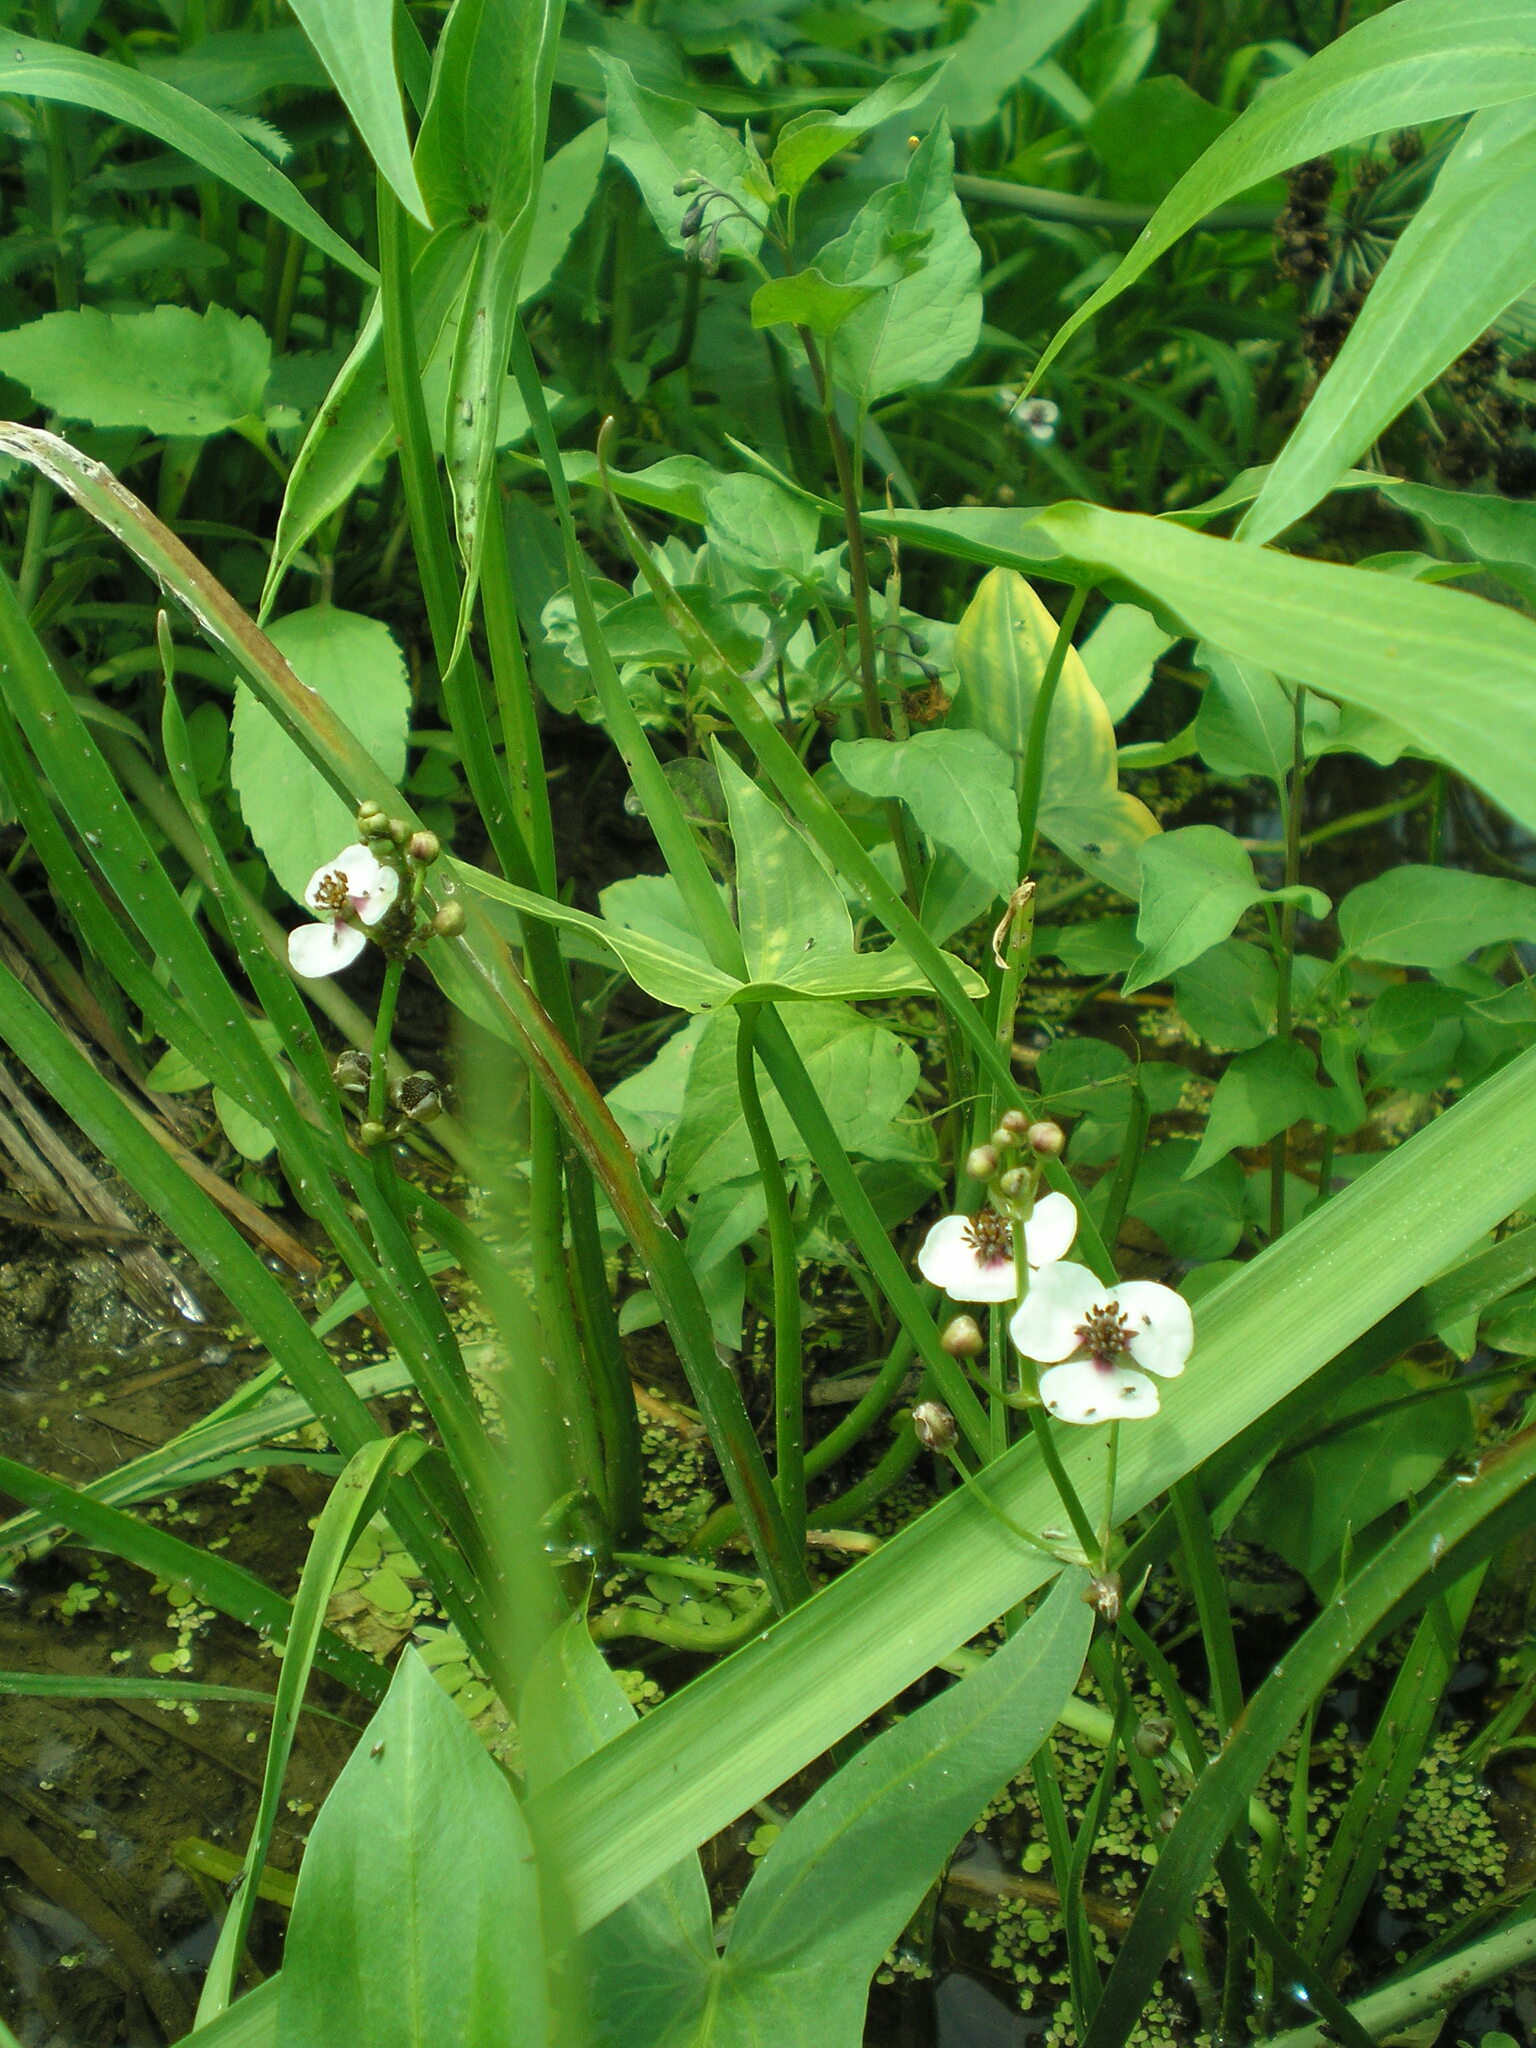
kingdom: Plantae
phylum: Tracheophyta
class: Liliopsida
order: Alismatales
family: Alismataceae
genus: Sagittaria
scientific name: Sagittaria sagittifolia
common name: Arrowhead
